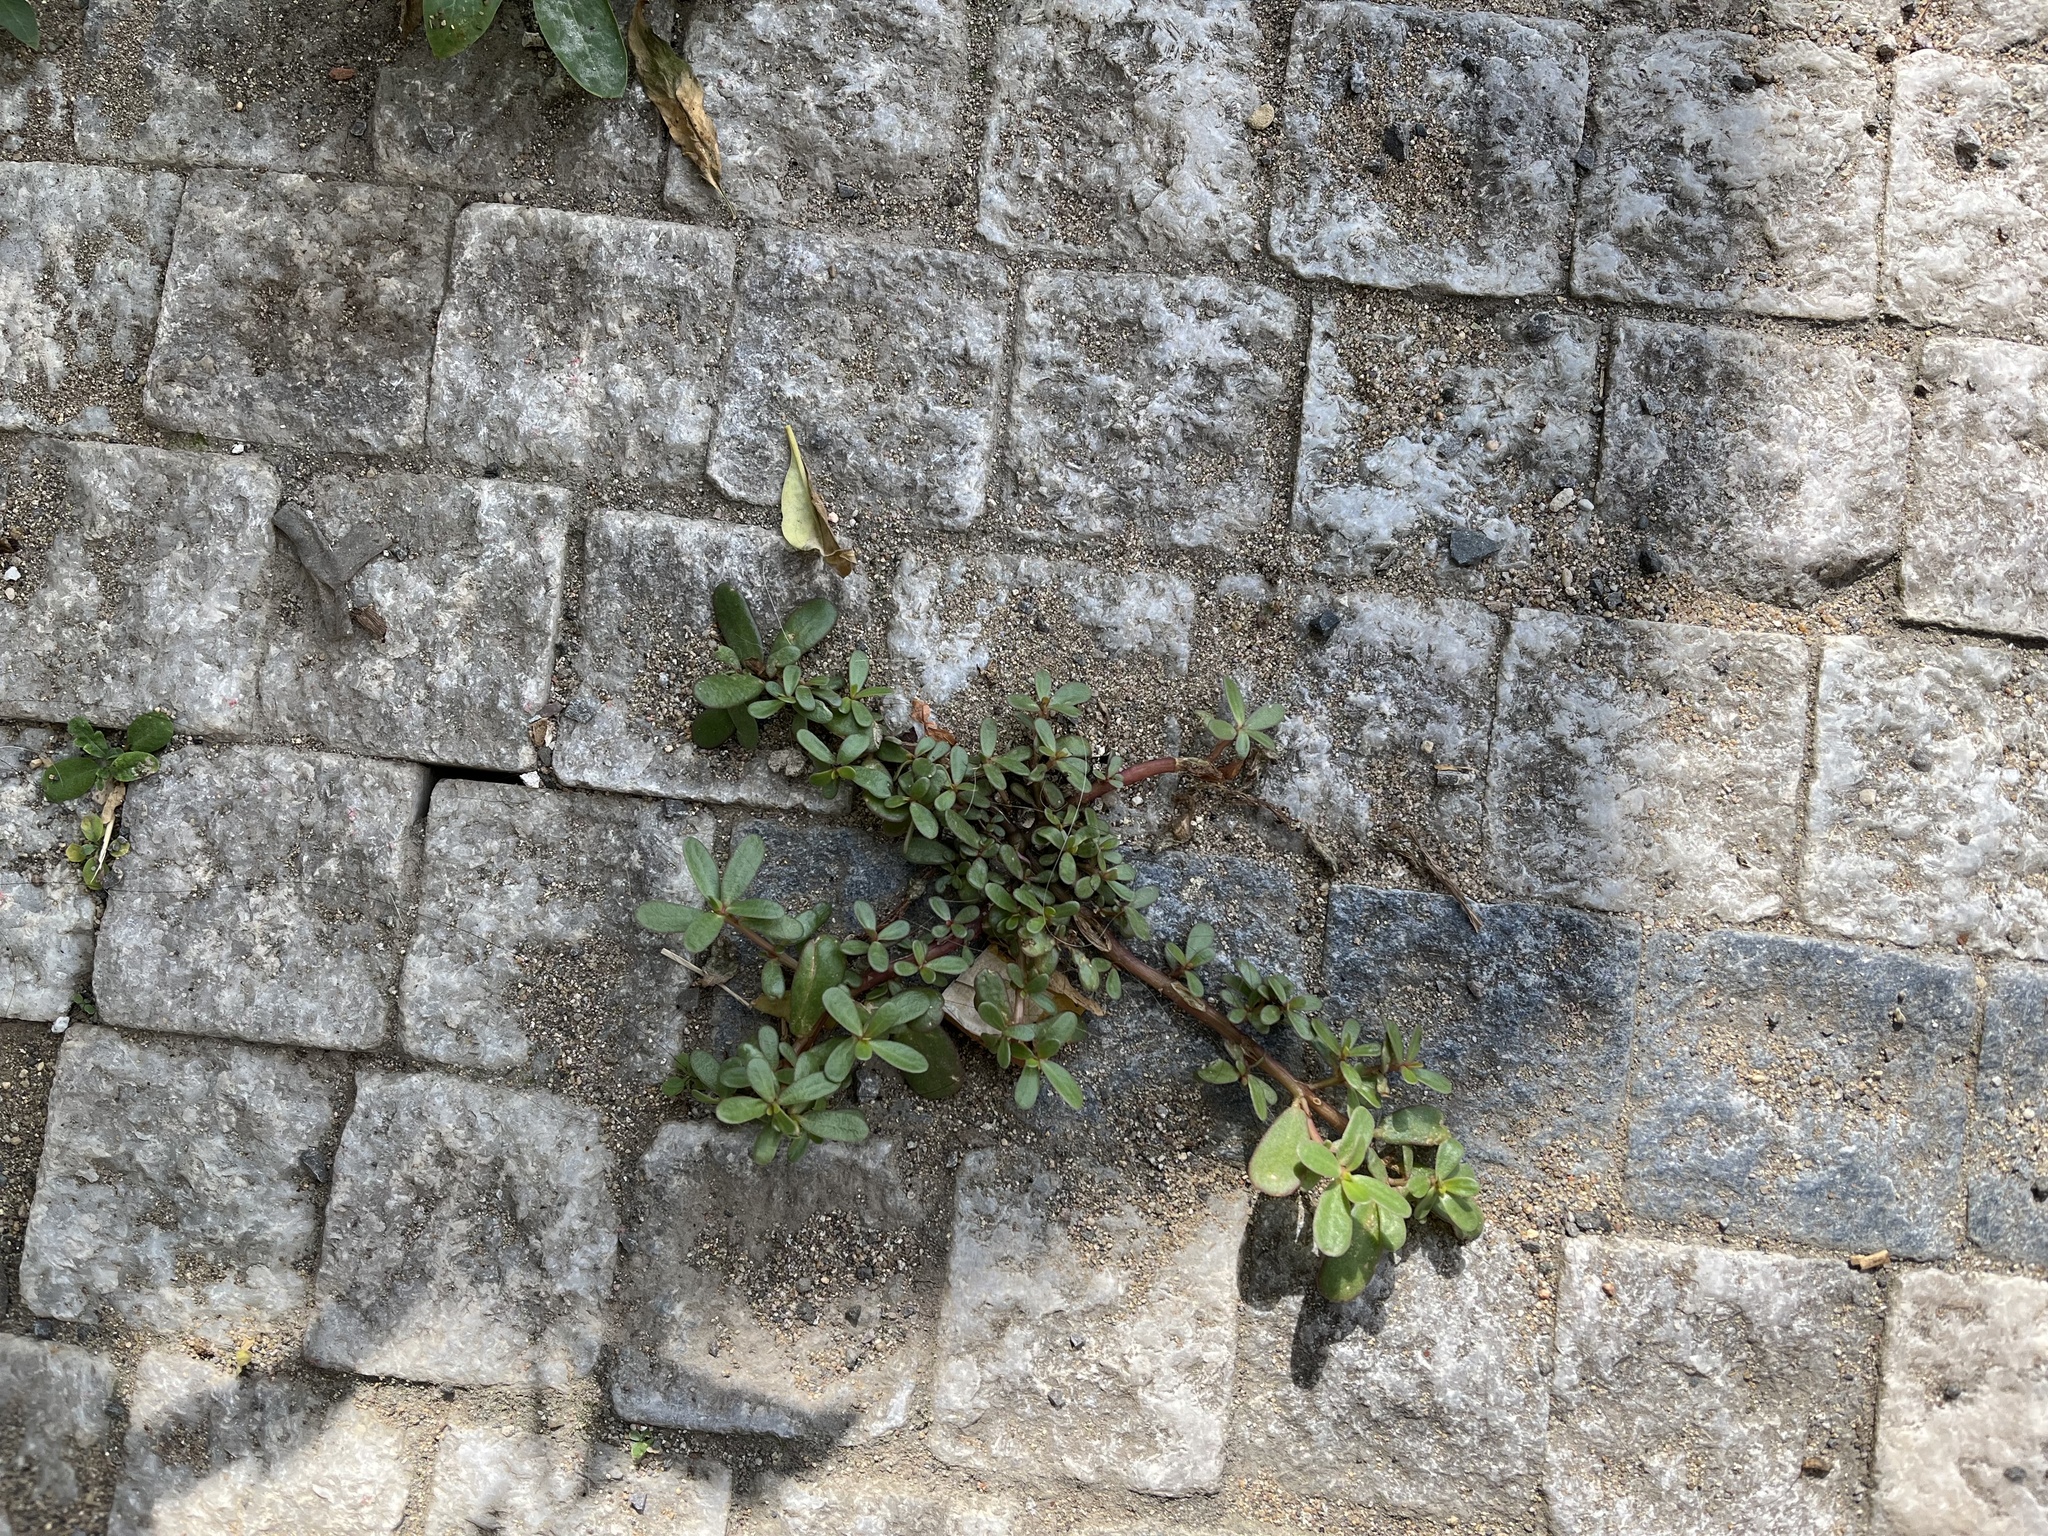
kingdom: Plantae
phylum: Tracheophyta
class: Magnoliopsida
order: Caryophyllales
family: Portulacaceae
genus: Portulaca
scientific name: Portulaca oleracea
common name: Common purslane
